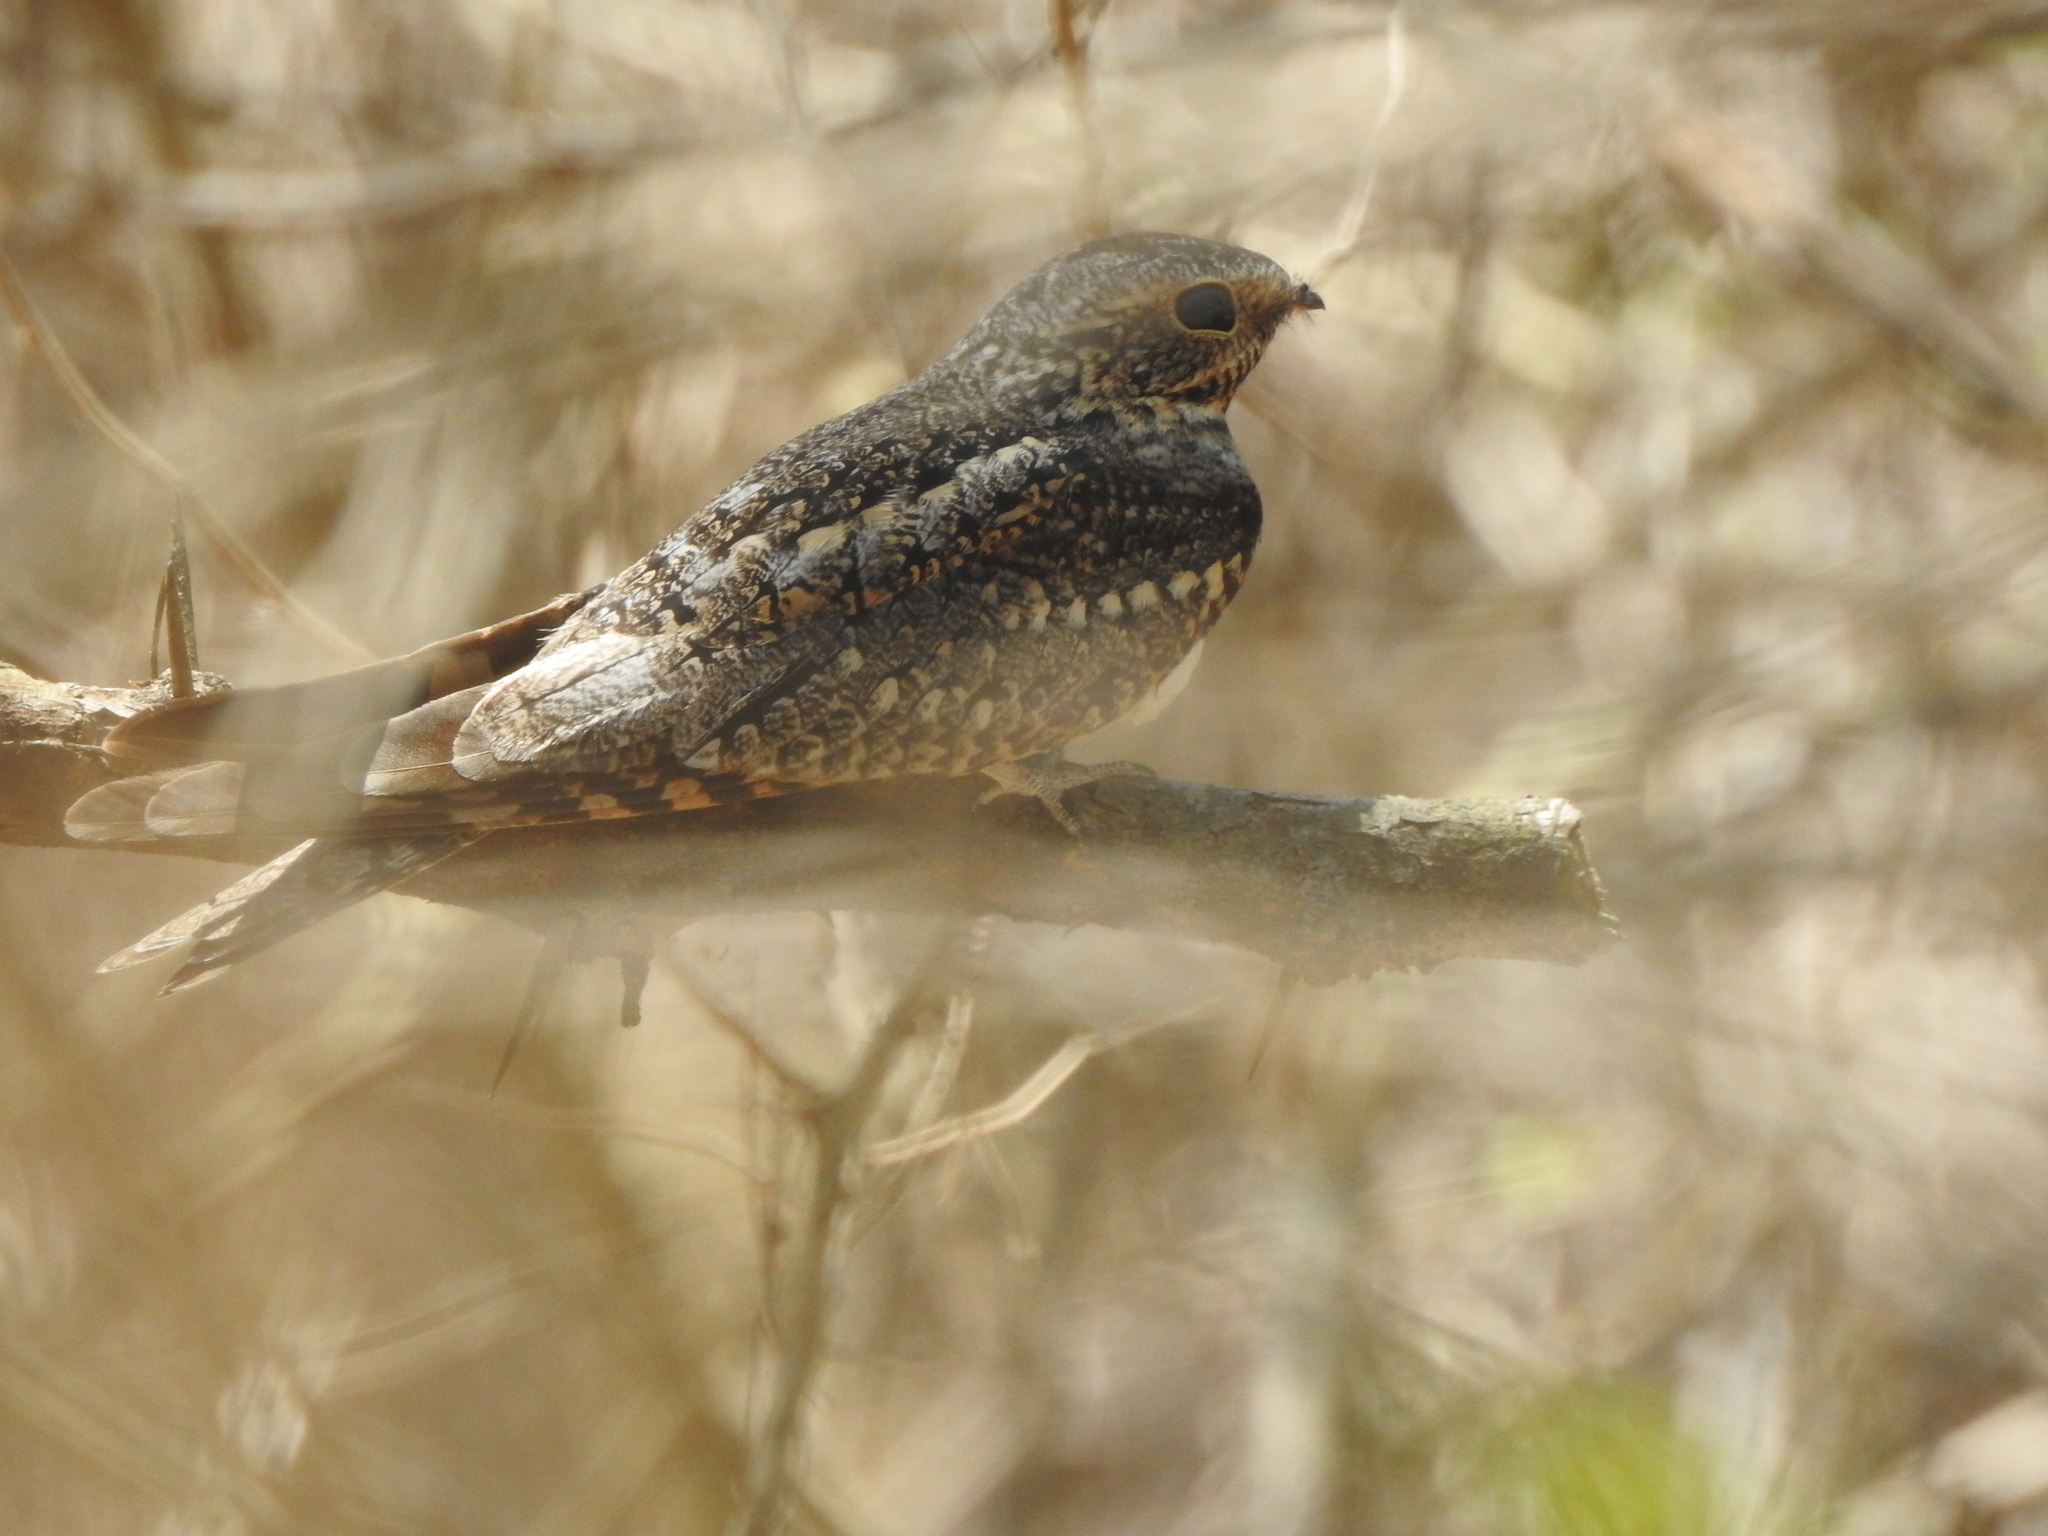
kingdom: Animalia
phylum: Chordata
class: Aves
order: Caprimulgiformes
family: Caprimulgidae
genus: Chordeiles
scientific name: Chordeiles acutipennis
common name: Lesser nighthawk
